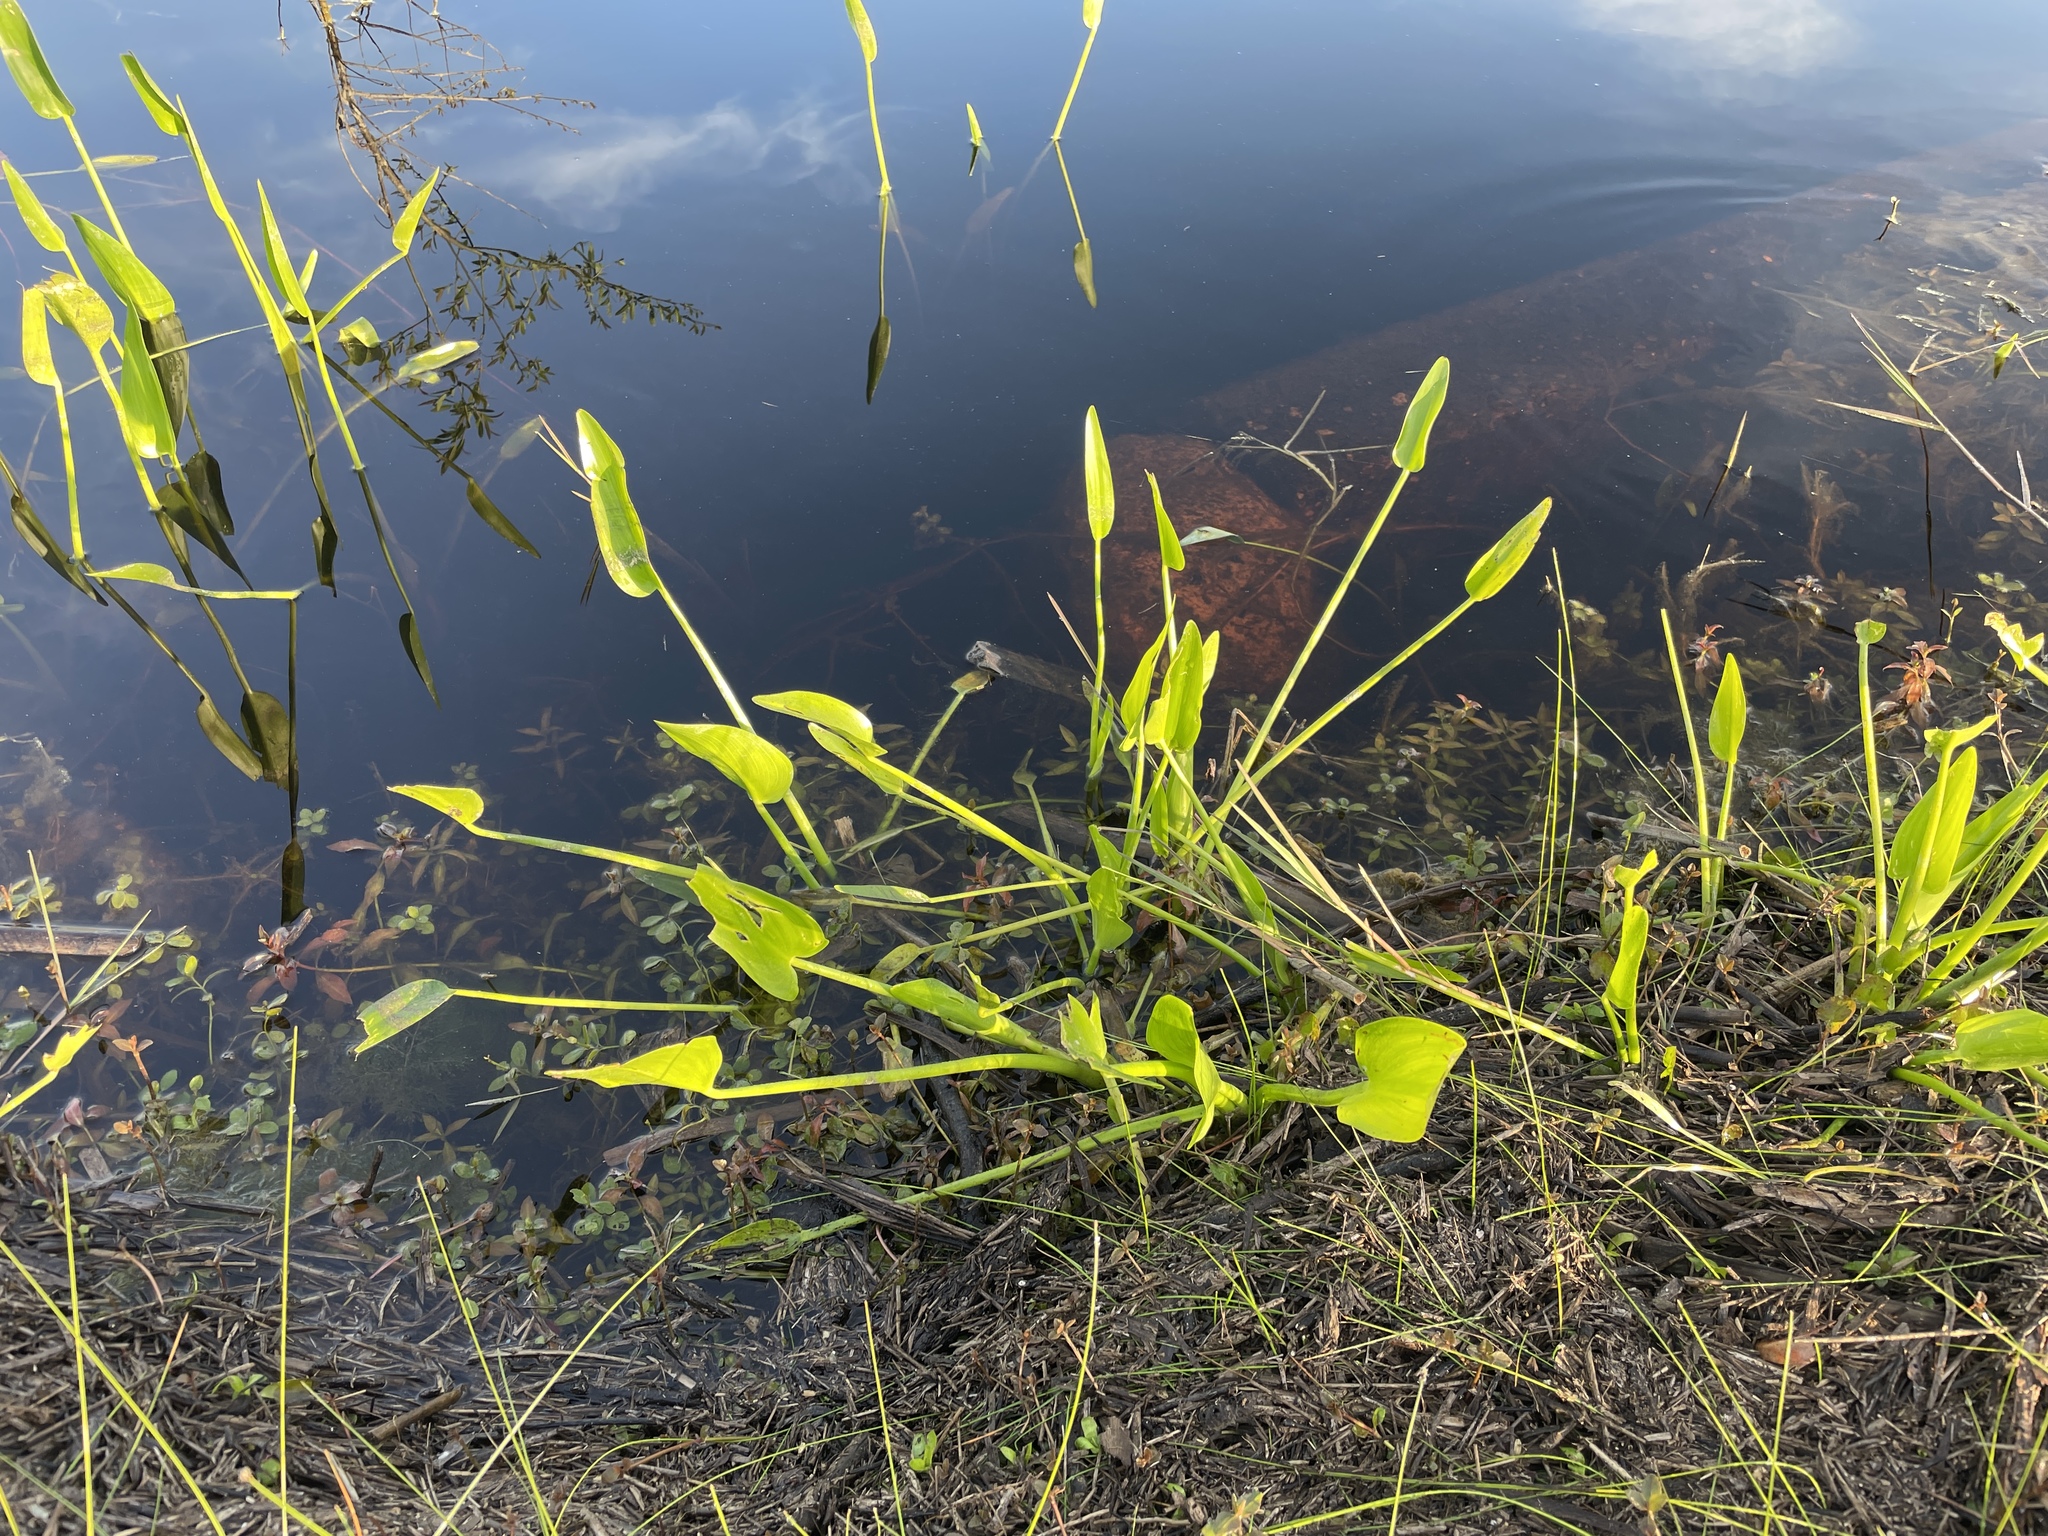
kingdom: Plantae
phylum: Tracheophyta
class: Liliopsida
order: Commelinales
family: Pontederiaceae
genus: Pontederia
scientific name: Pontederia cordata
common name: Pickerelweed
